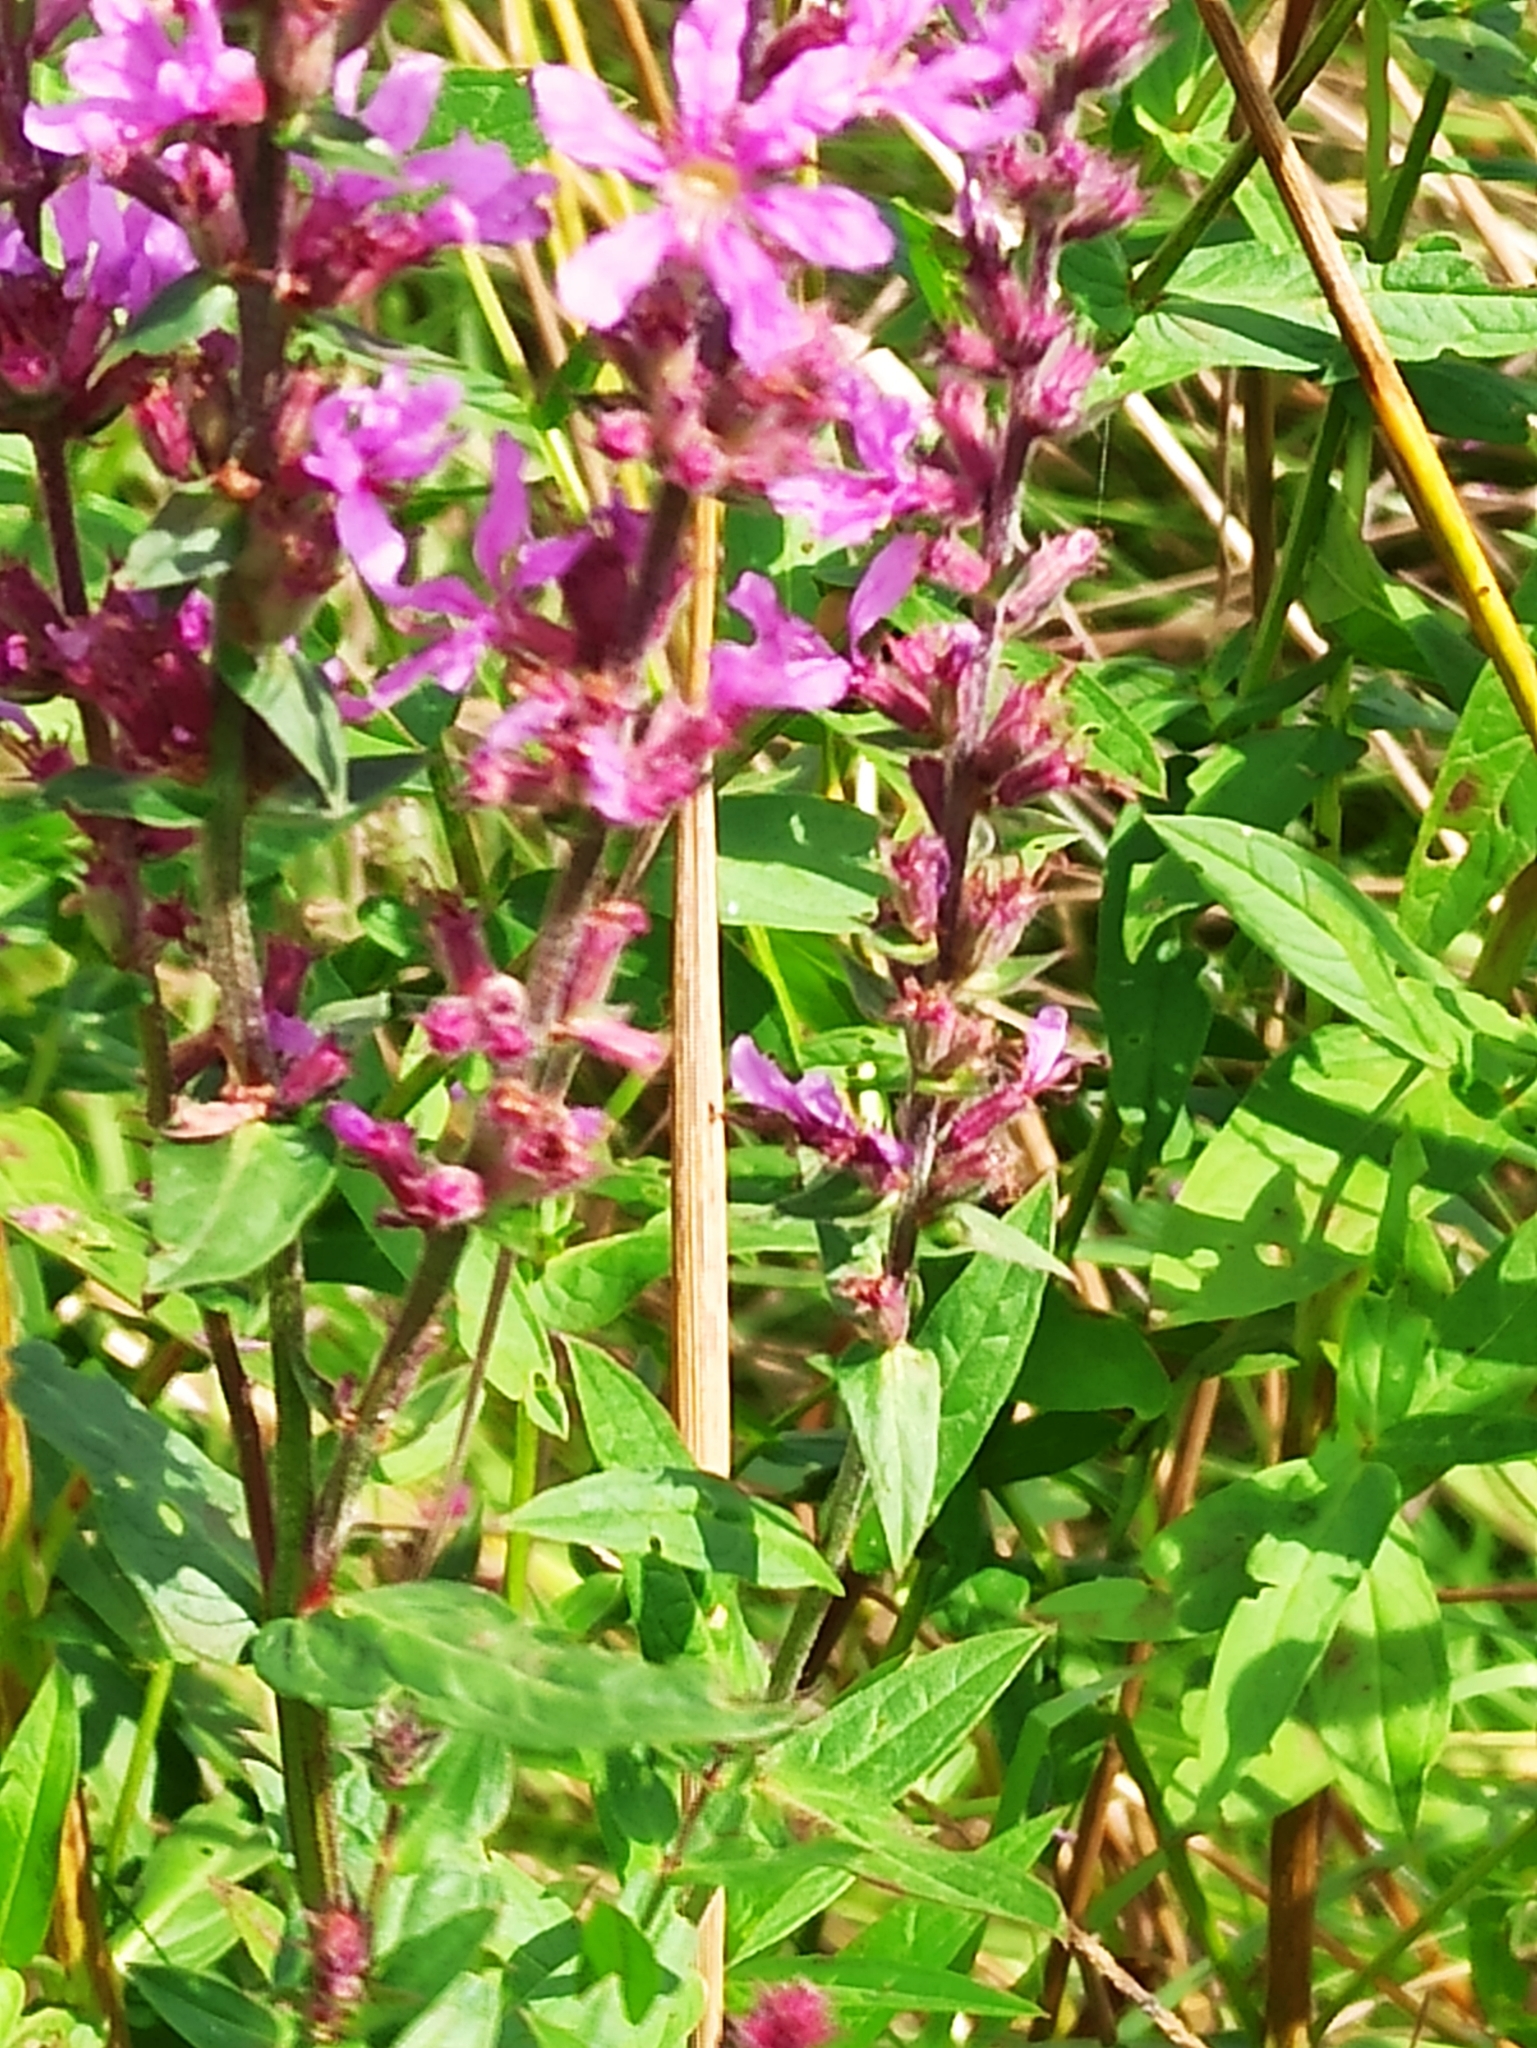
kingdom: Plantae
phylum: Tracheophyta
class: Magnoliopsida
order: Myrtales
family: Lythraceae
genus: Lythrum
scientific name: Lythrum salicaria
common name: Purple loosestrife
